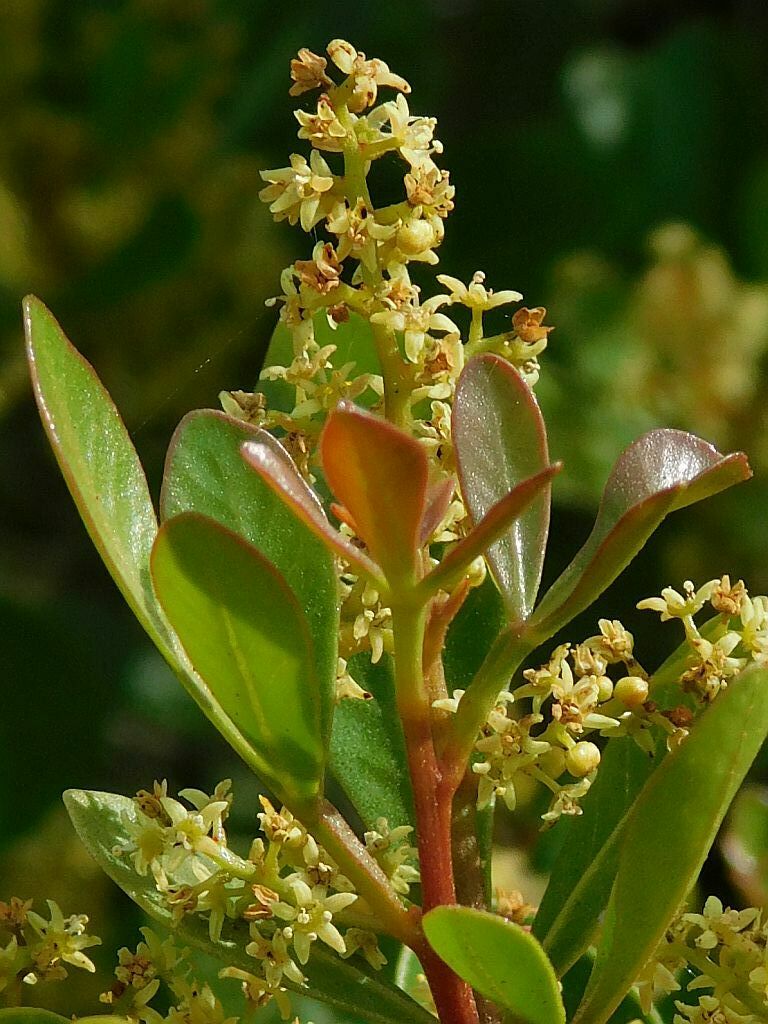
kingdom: Plantae
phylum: Tracheophyta
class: Magnoliopsida
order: Sapindales
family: Anacardiaceae
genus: Searsia
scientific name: Searsia lucida
